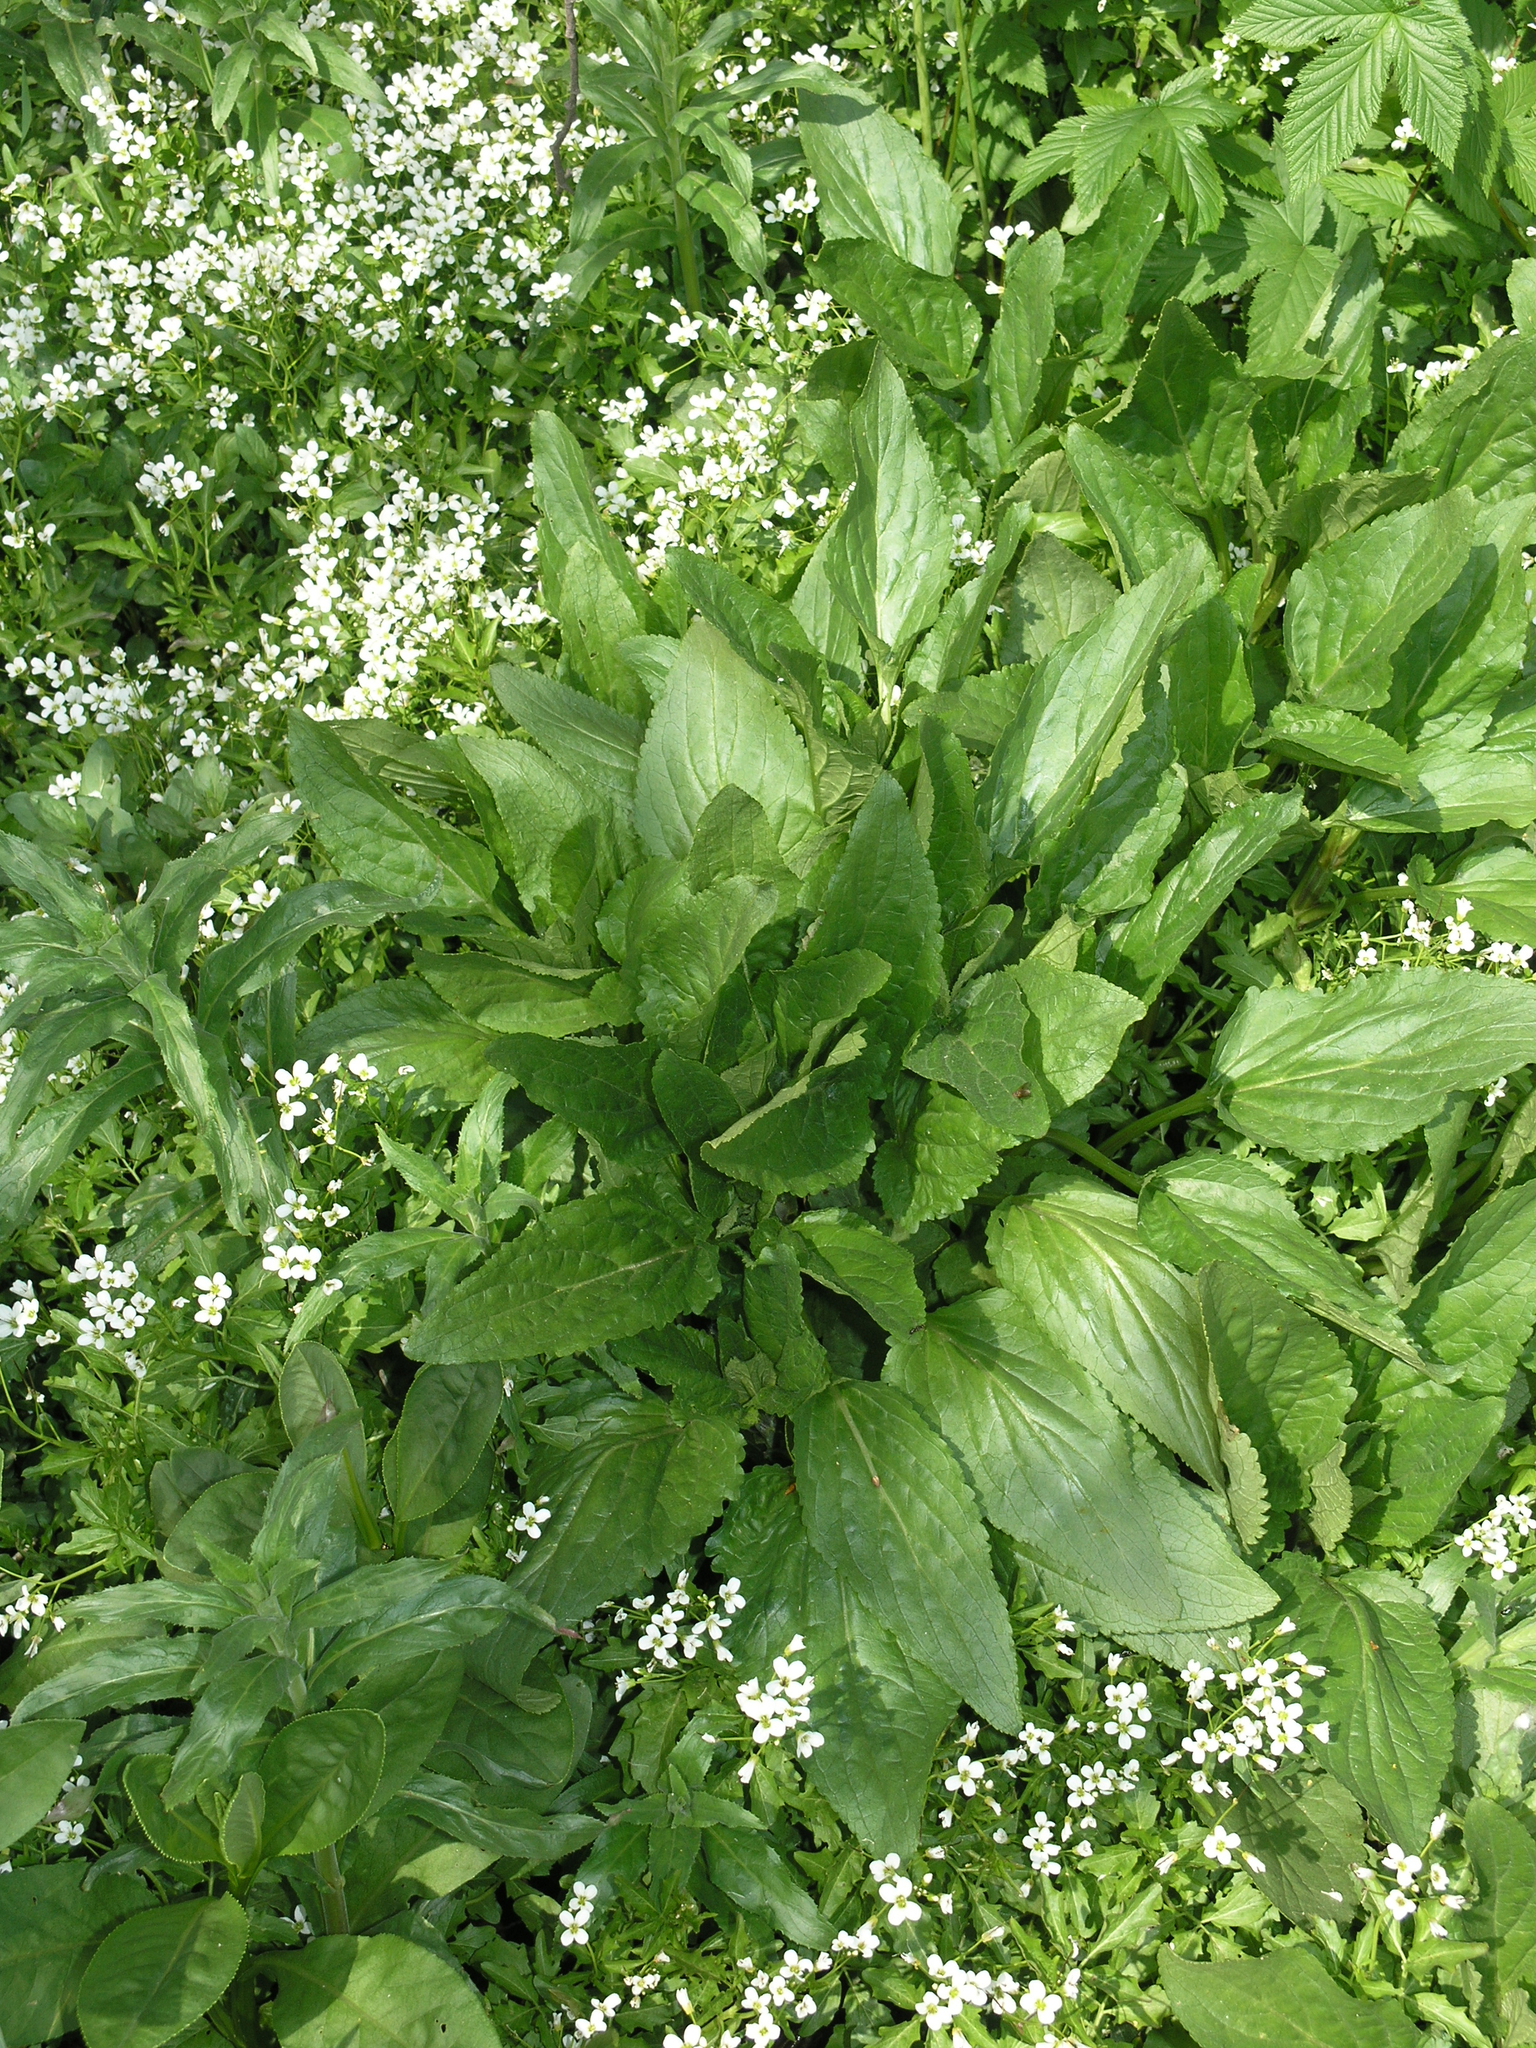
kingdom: Plantae
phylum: Tracheophyta
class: Magnoliopsida
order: Lamiales
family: Scrophulariaceae
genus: Scrophularia
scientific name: Scrophularia umbrosa
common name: Green figwort
